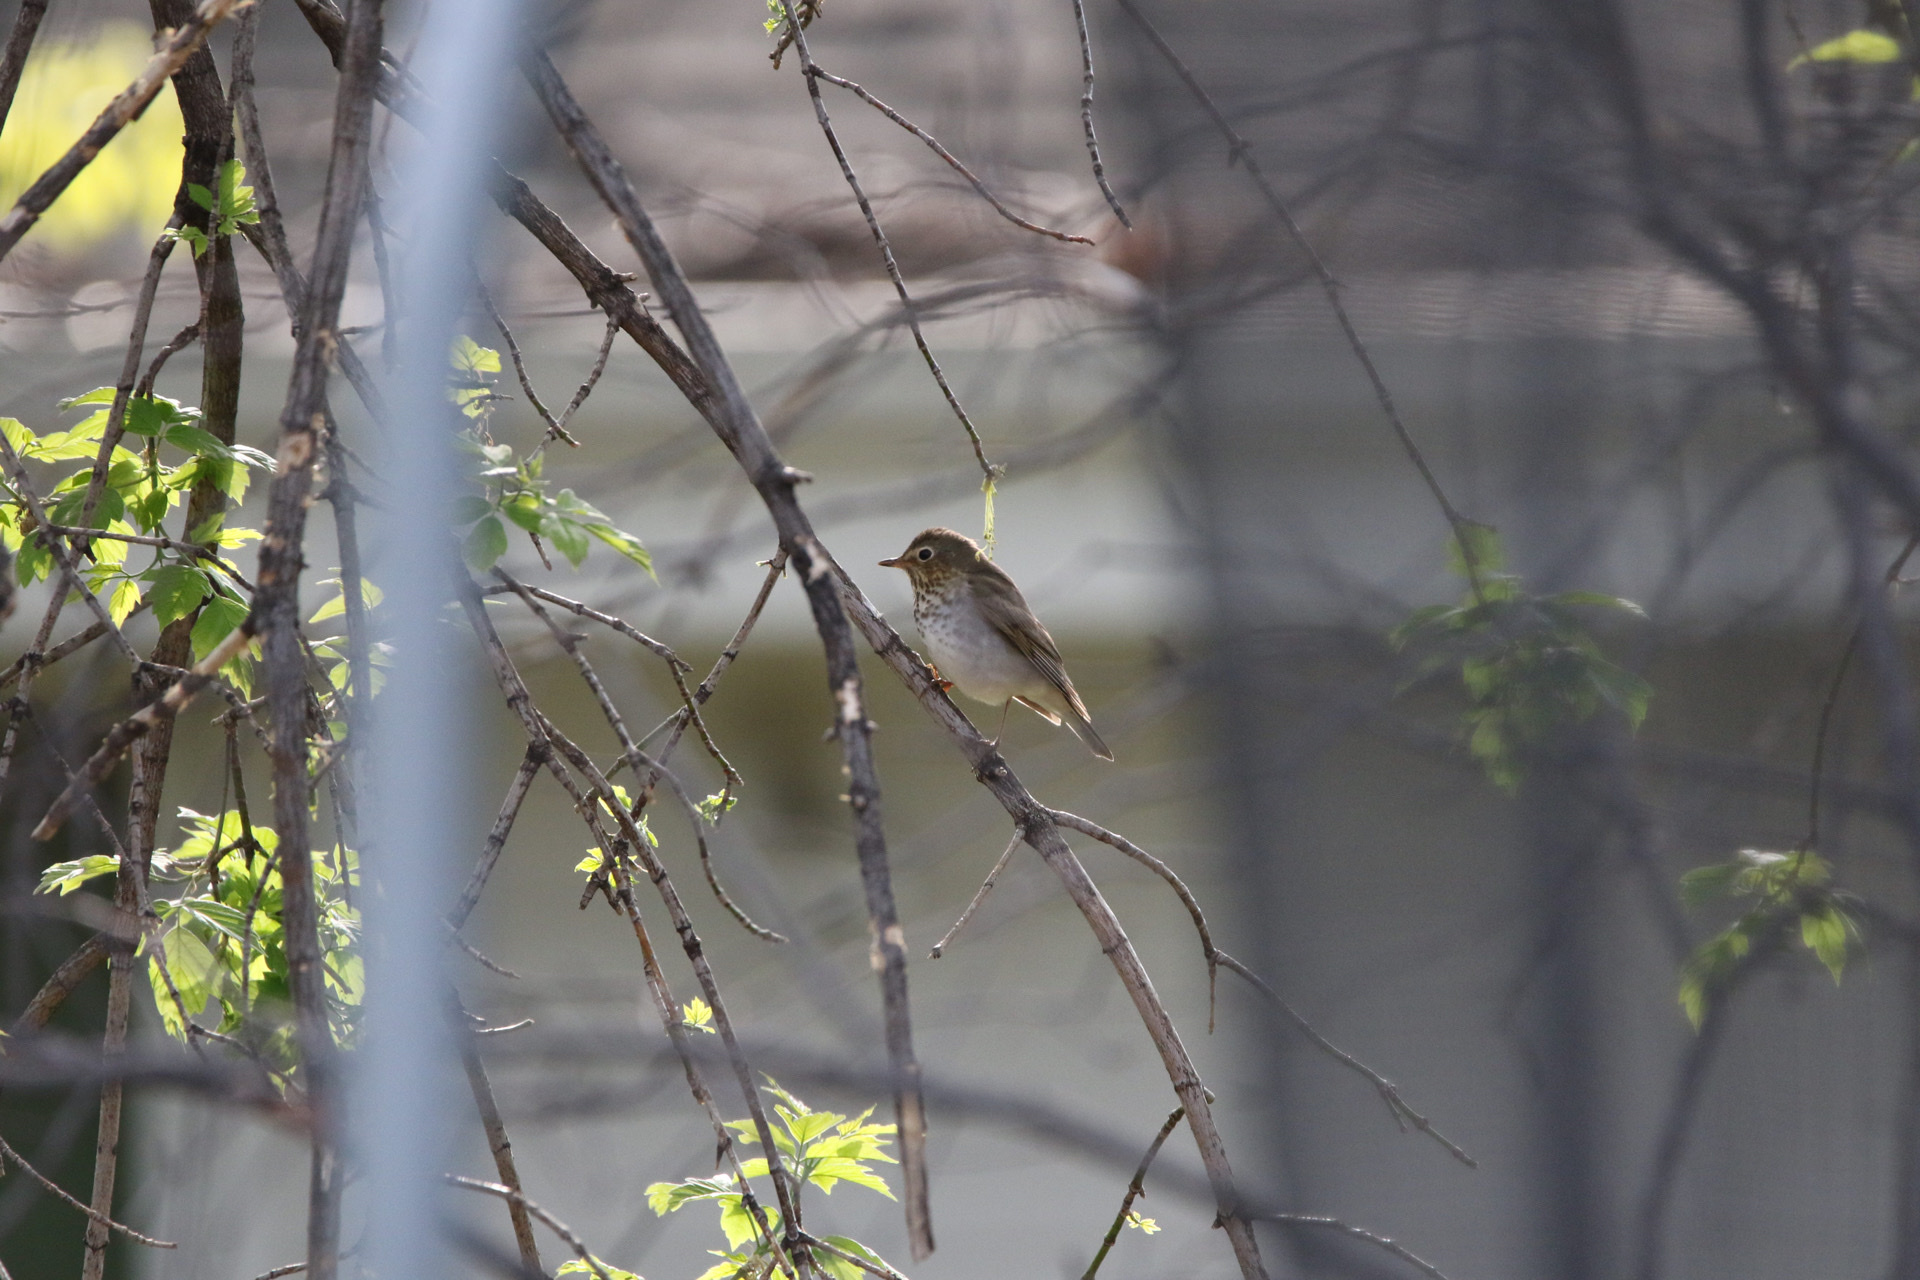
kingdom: Animalia
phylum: Chordata
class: Aves
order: Passeriformes
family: Turdidae
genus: Catharus
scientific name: Catharus ustulatus
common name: Swainson's thrush
